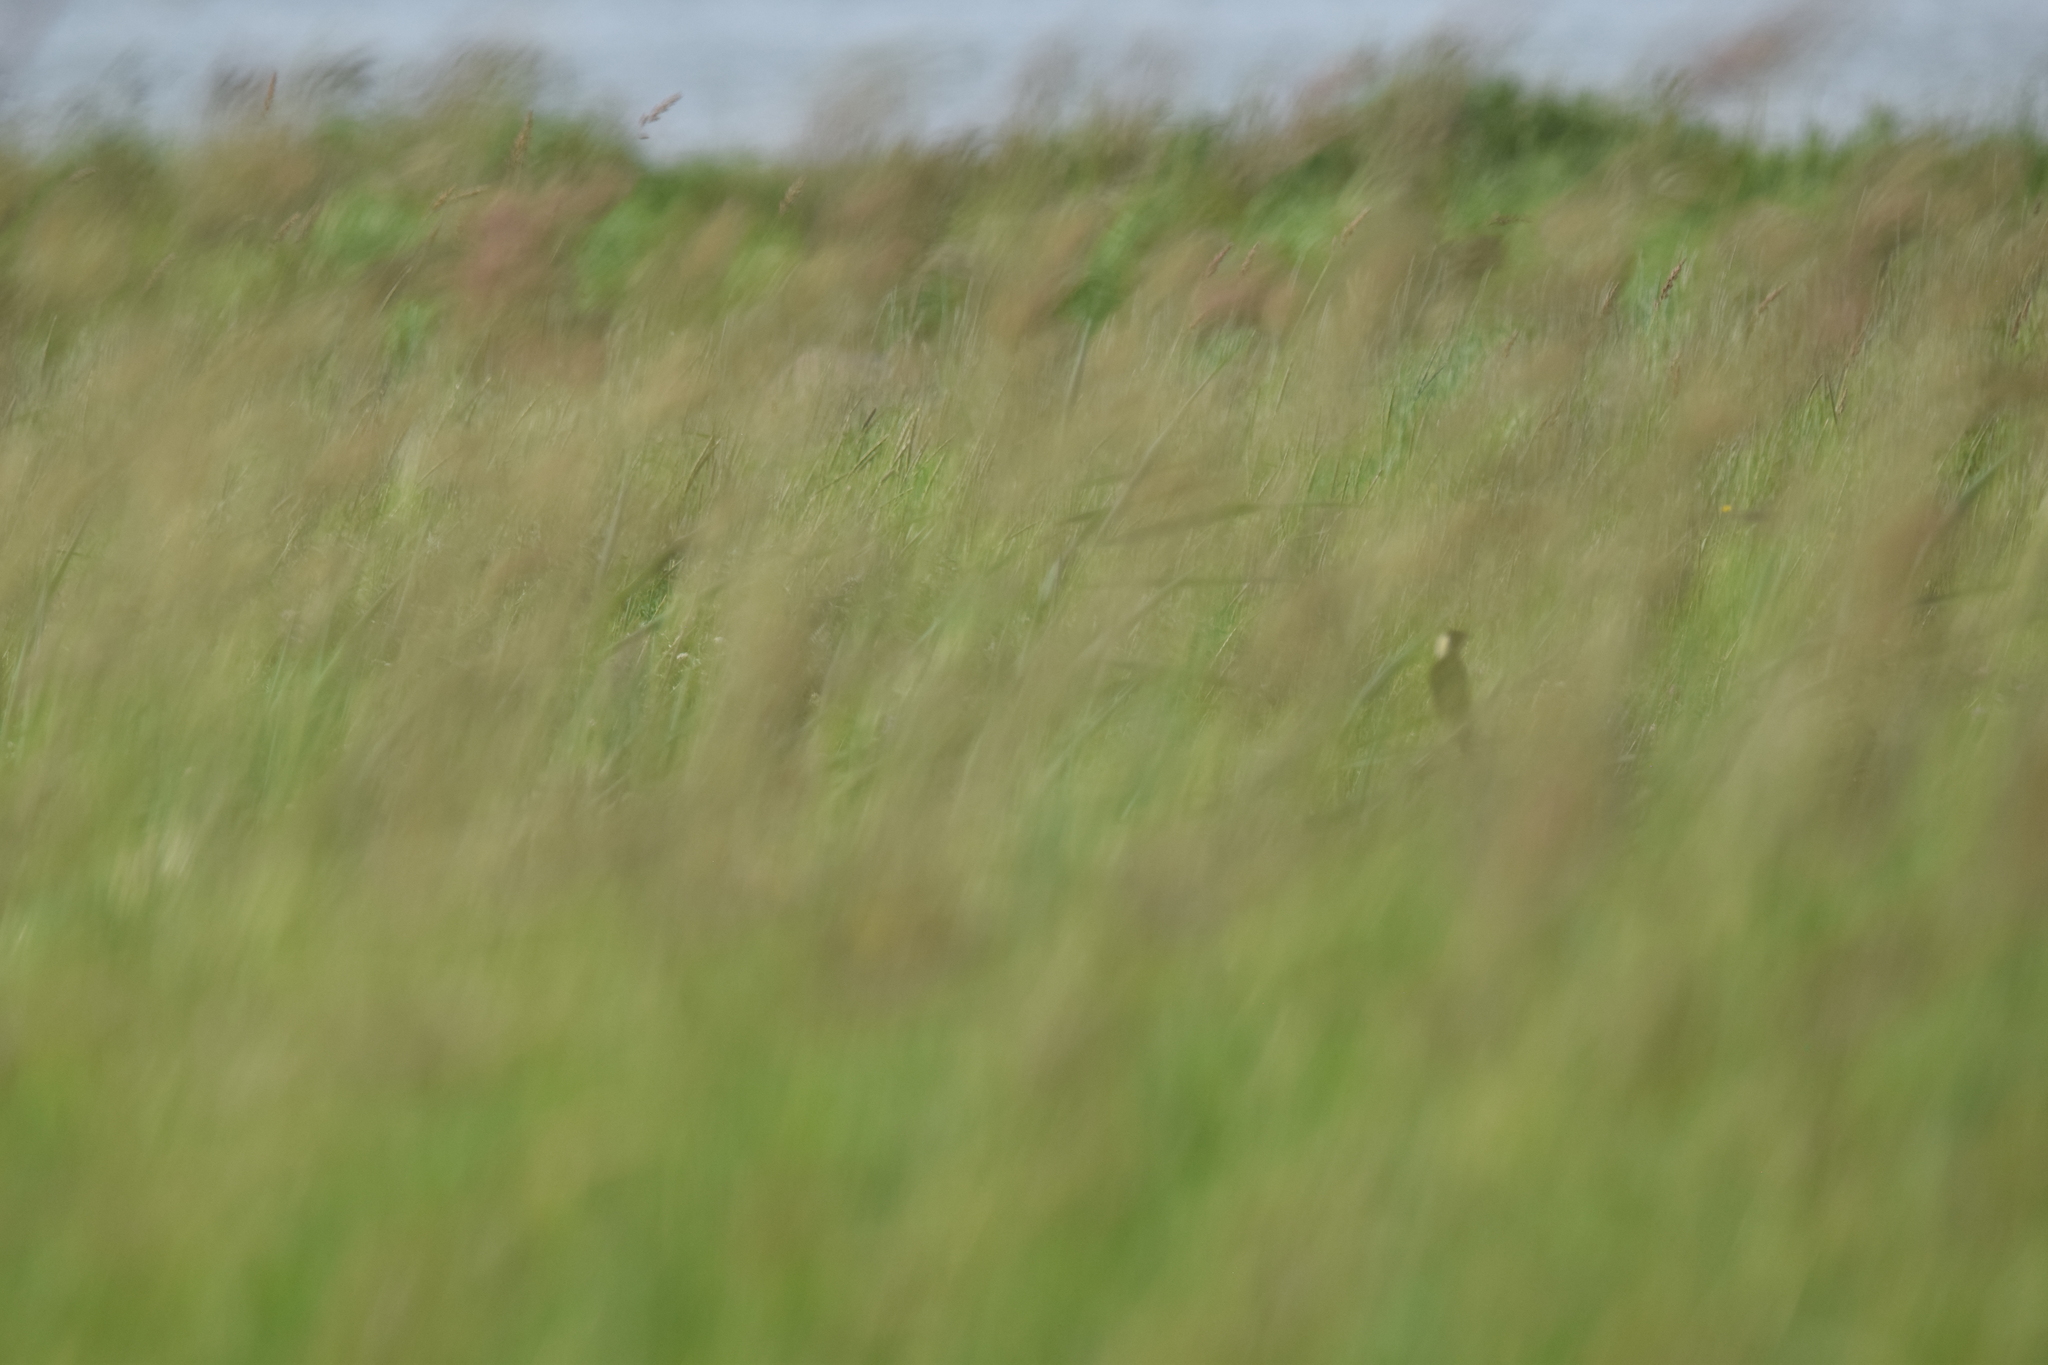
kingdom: Animalia
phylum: Chordata
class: Aves
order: Passeriformes
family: Icteridae
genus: Dolichonyx
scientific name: Dolichonyx oryzivorus
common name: Bobolink
